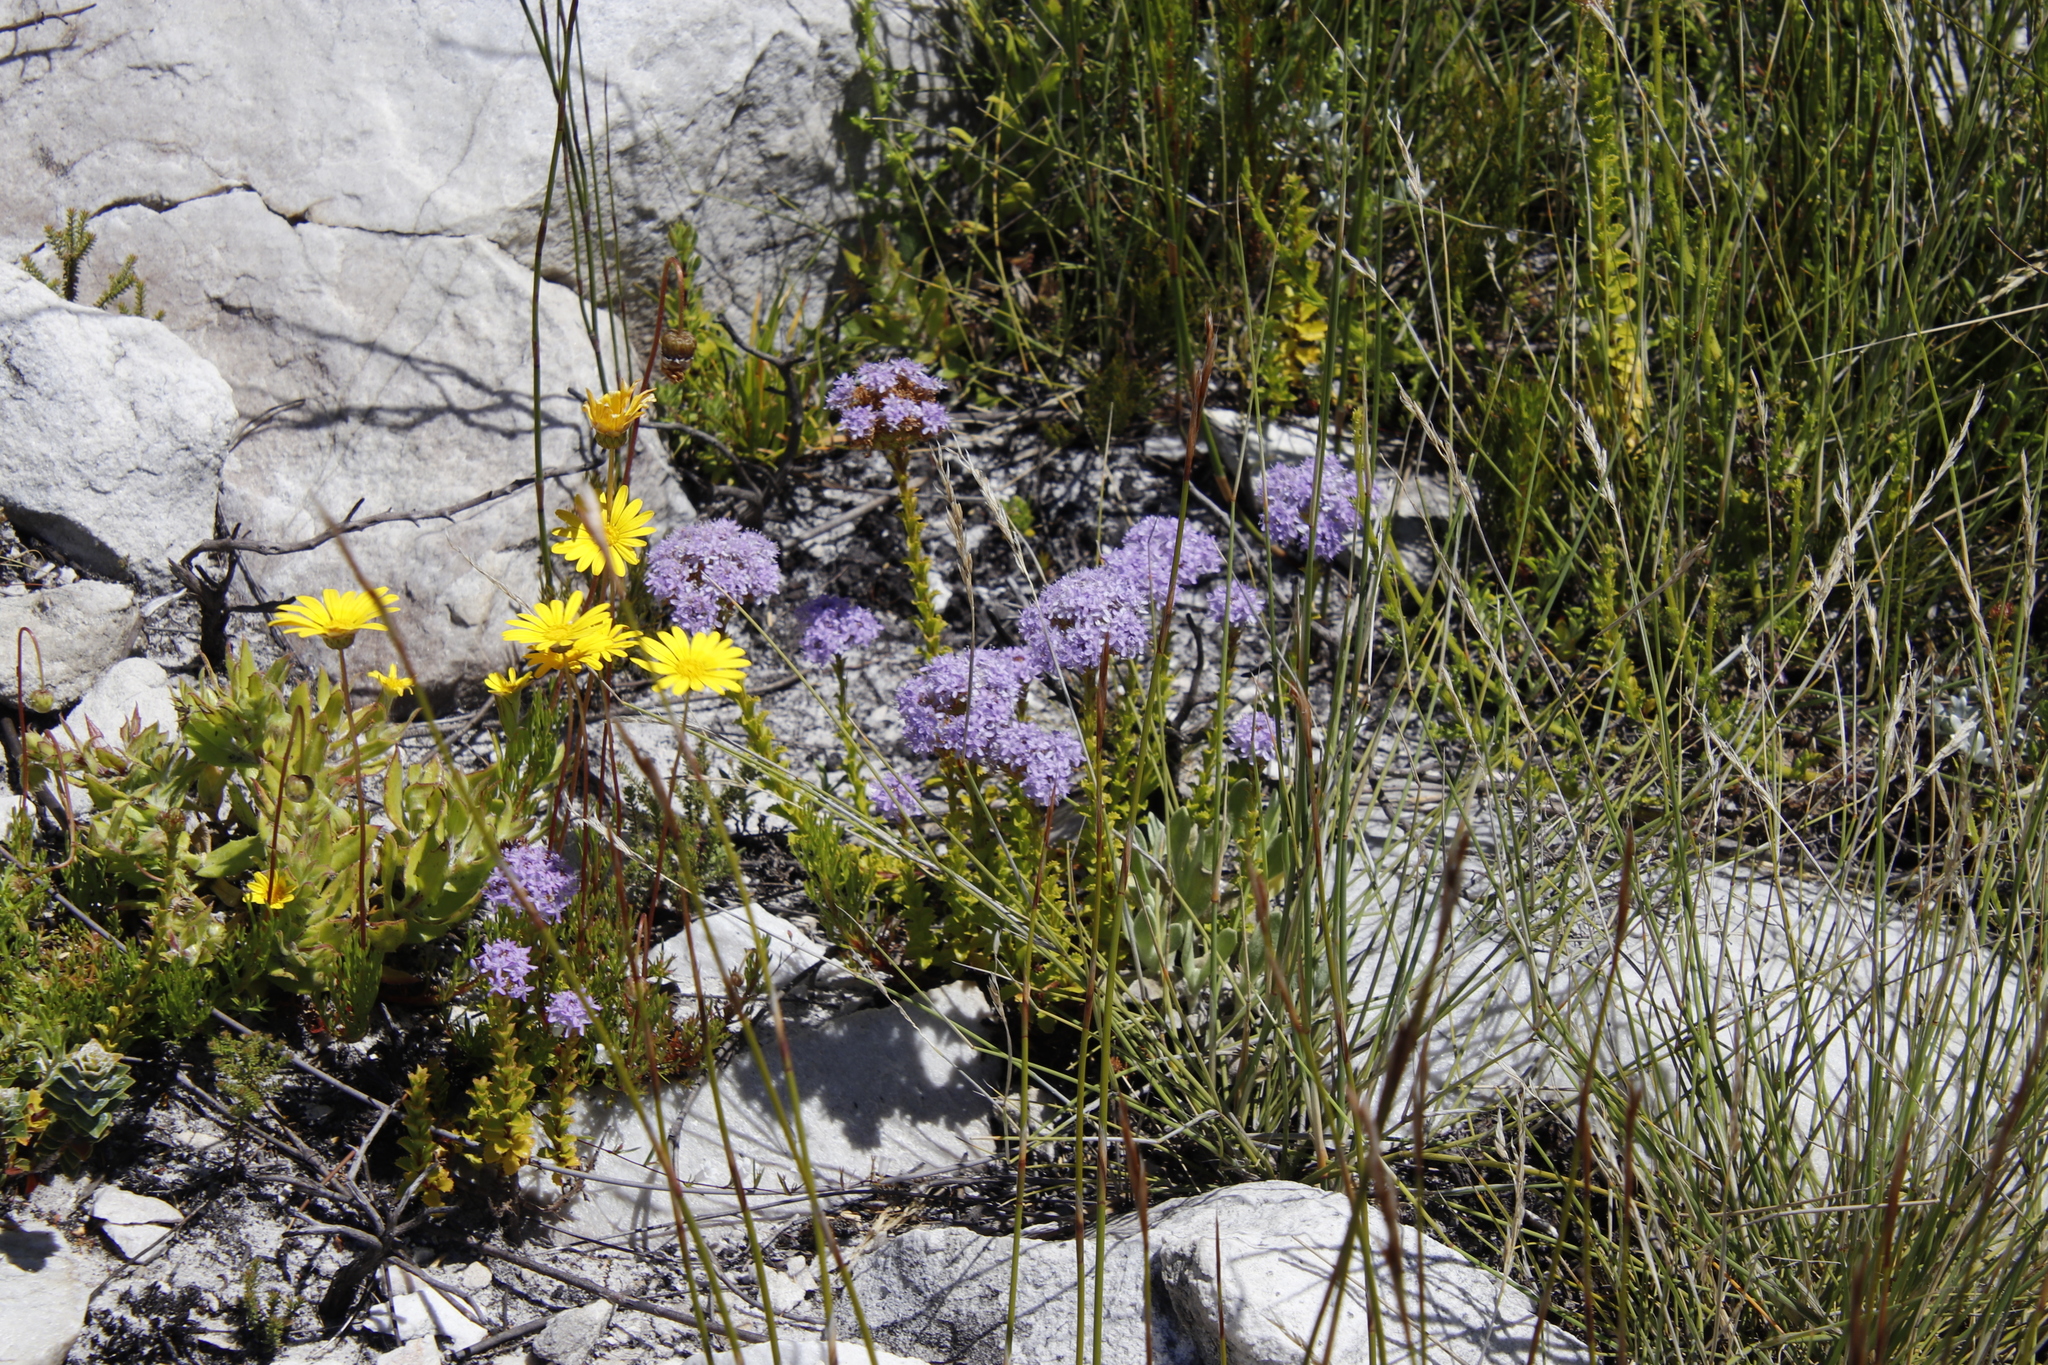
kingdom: Plantae
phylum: Tracheophyta
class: Magnoliopsida
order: Lamiales
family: Scrophulariaceae
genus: Pseudoselago
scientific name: Pseudoselago serrata
